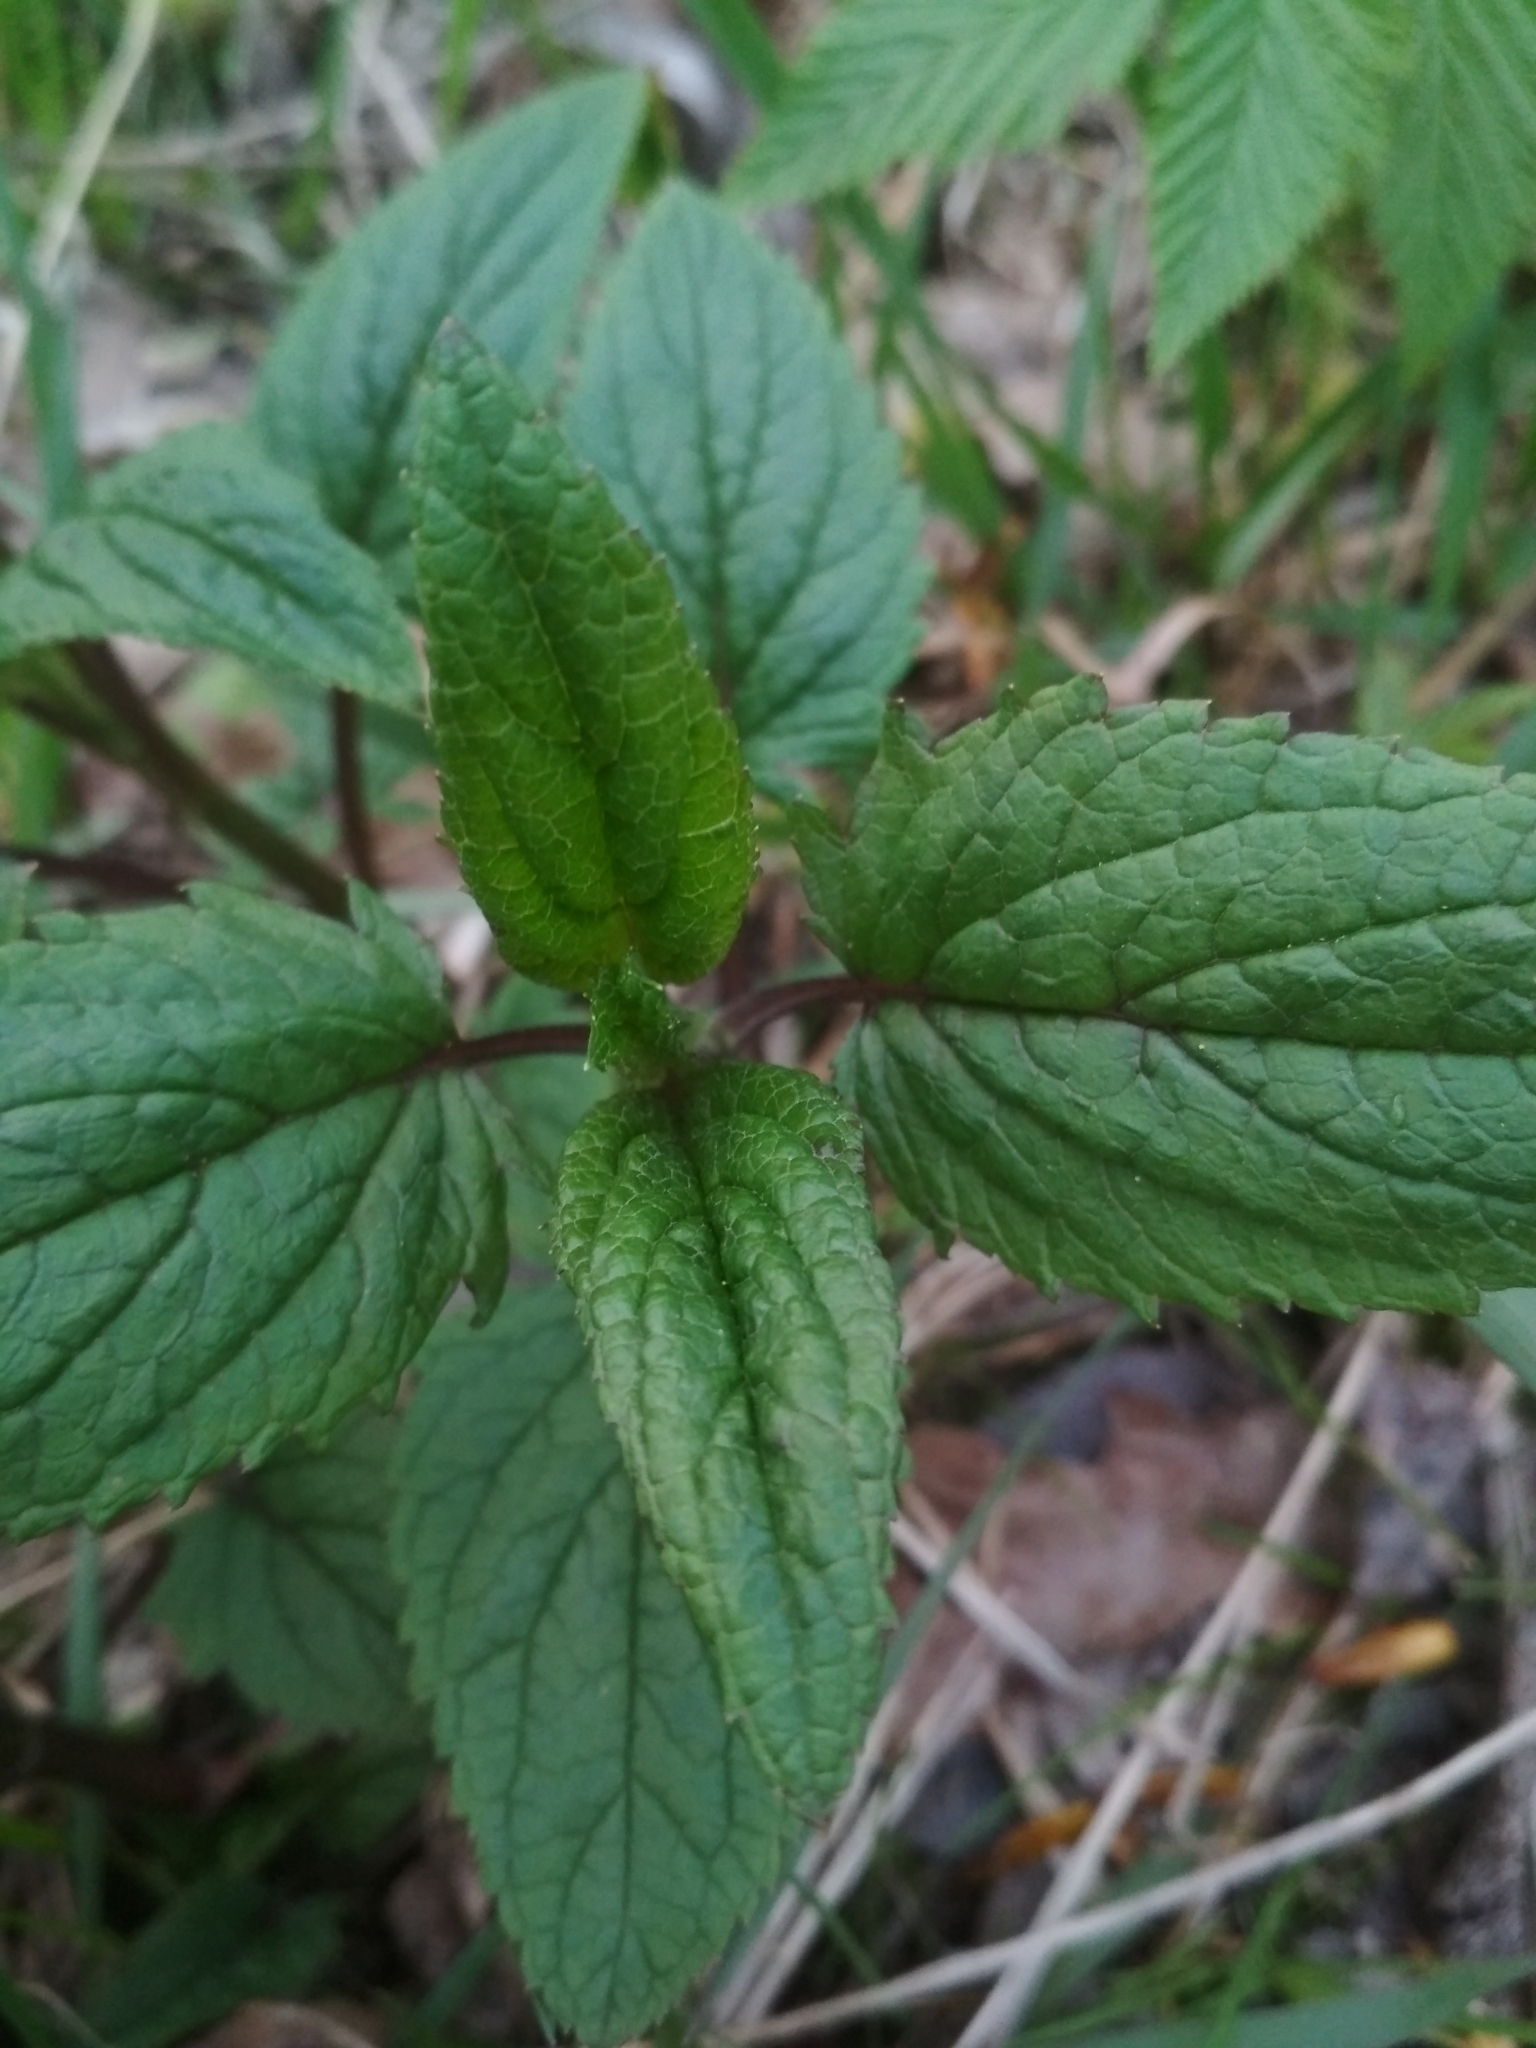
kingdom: Plantae
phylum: Tracheophyta
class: Magnoliopsida
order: Lamiales
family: Scrophulariaceae
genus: Scrophularia
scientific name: Scrophularia nodosa
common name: Common figwort
